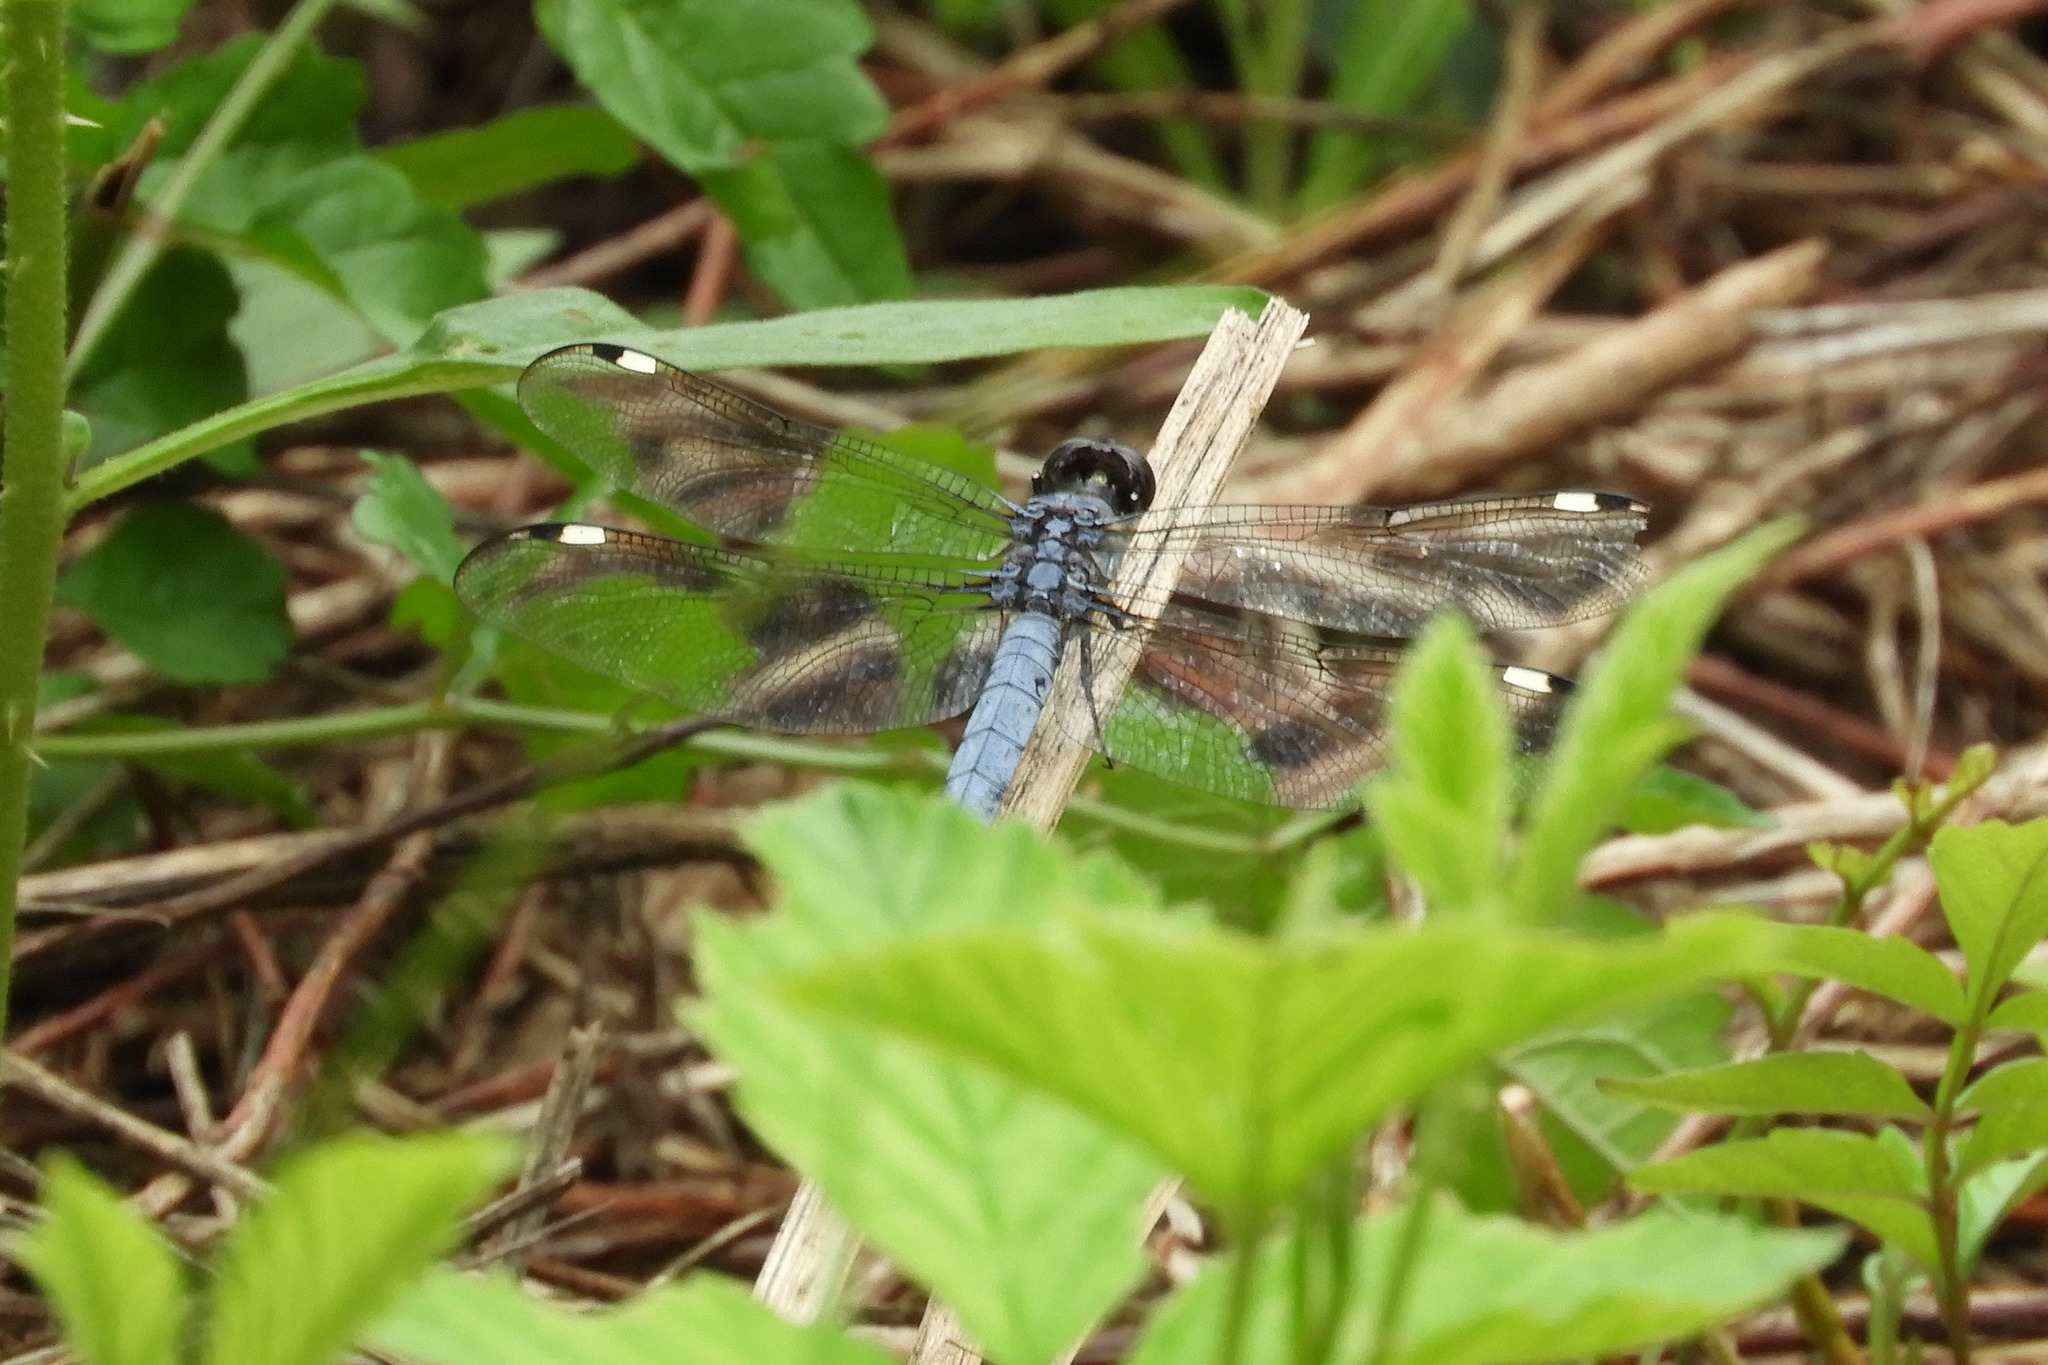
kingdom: Animalia
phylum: Arthropoda
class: Insecta
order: Odonata
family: Libellulidae
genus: Libellula
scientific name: Libellula cyanea
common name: Spangled skimmer
